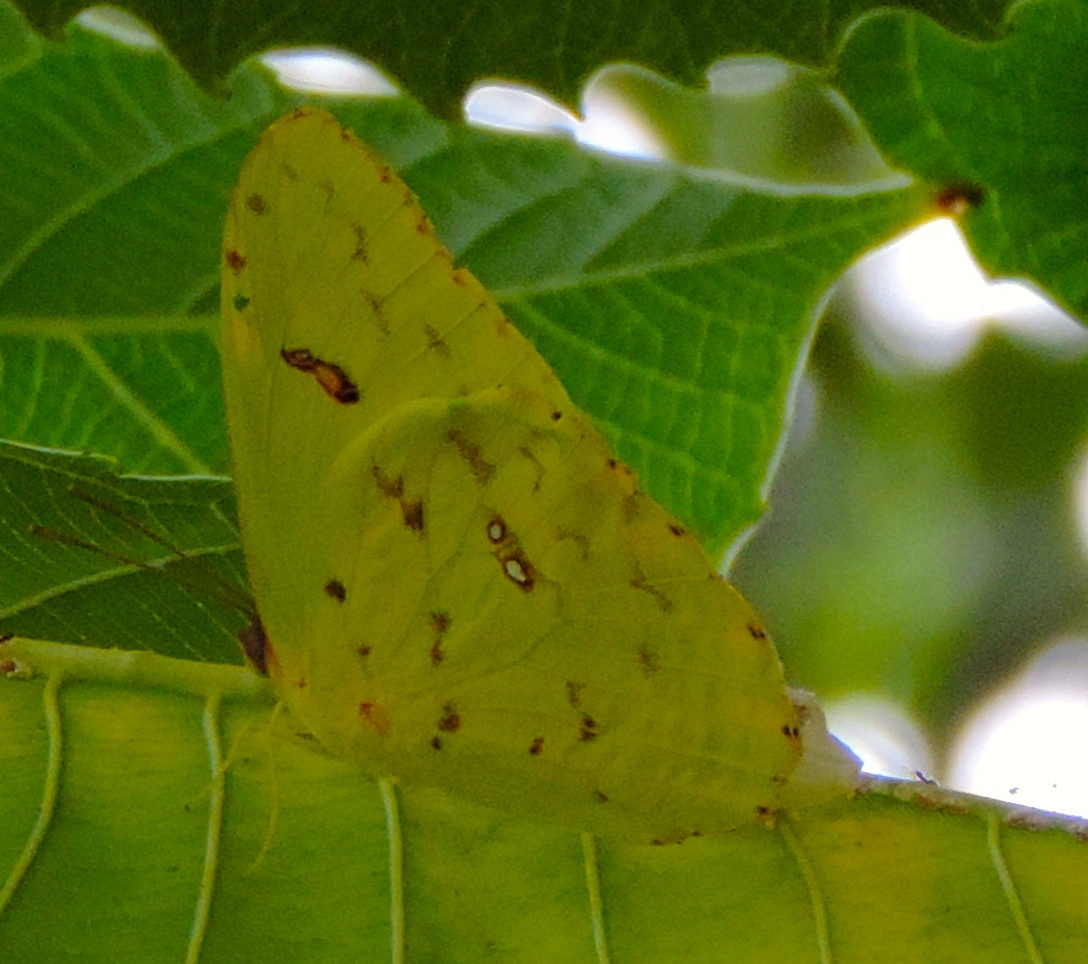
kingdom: Animalia
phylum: Arthropoda
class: Insecta
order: Lepidoptera
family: Pieridae
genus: Phoebis
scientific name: Phoebis marcellina
